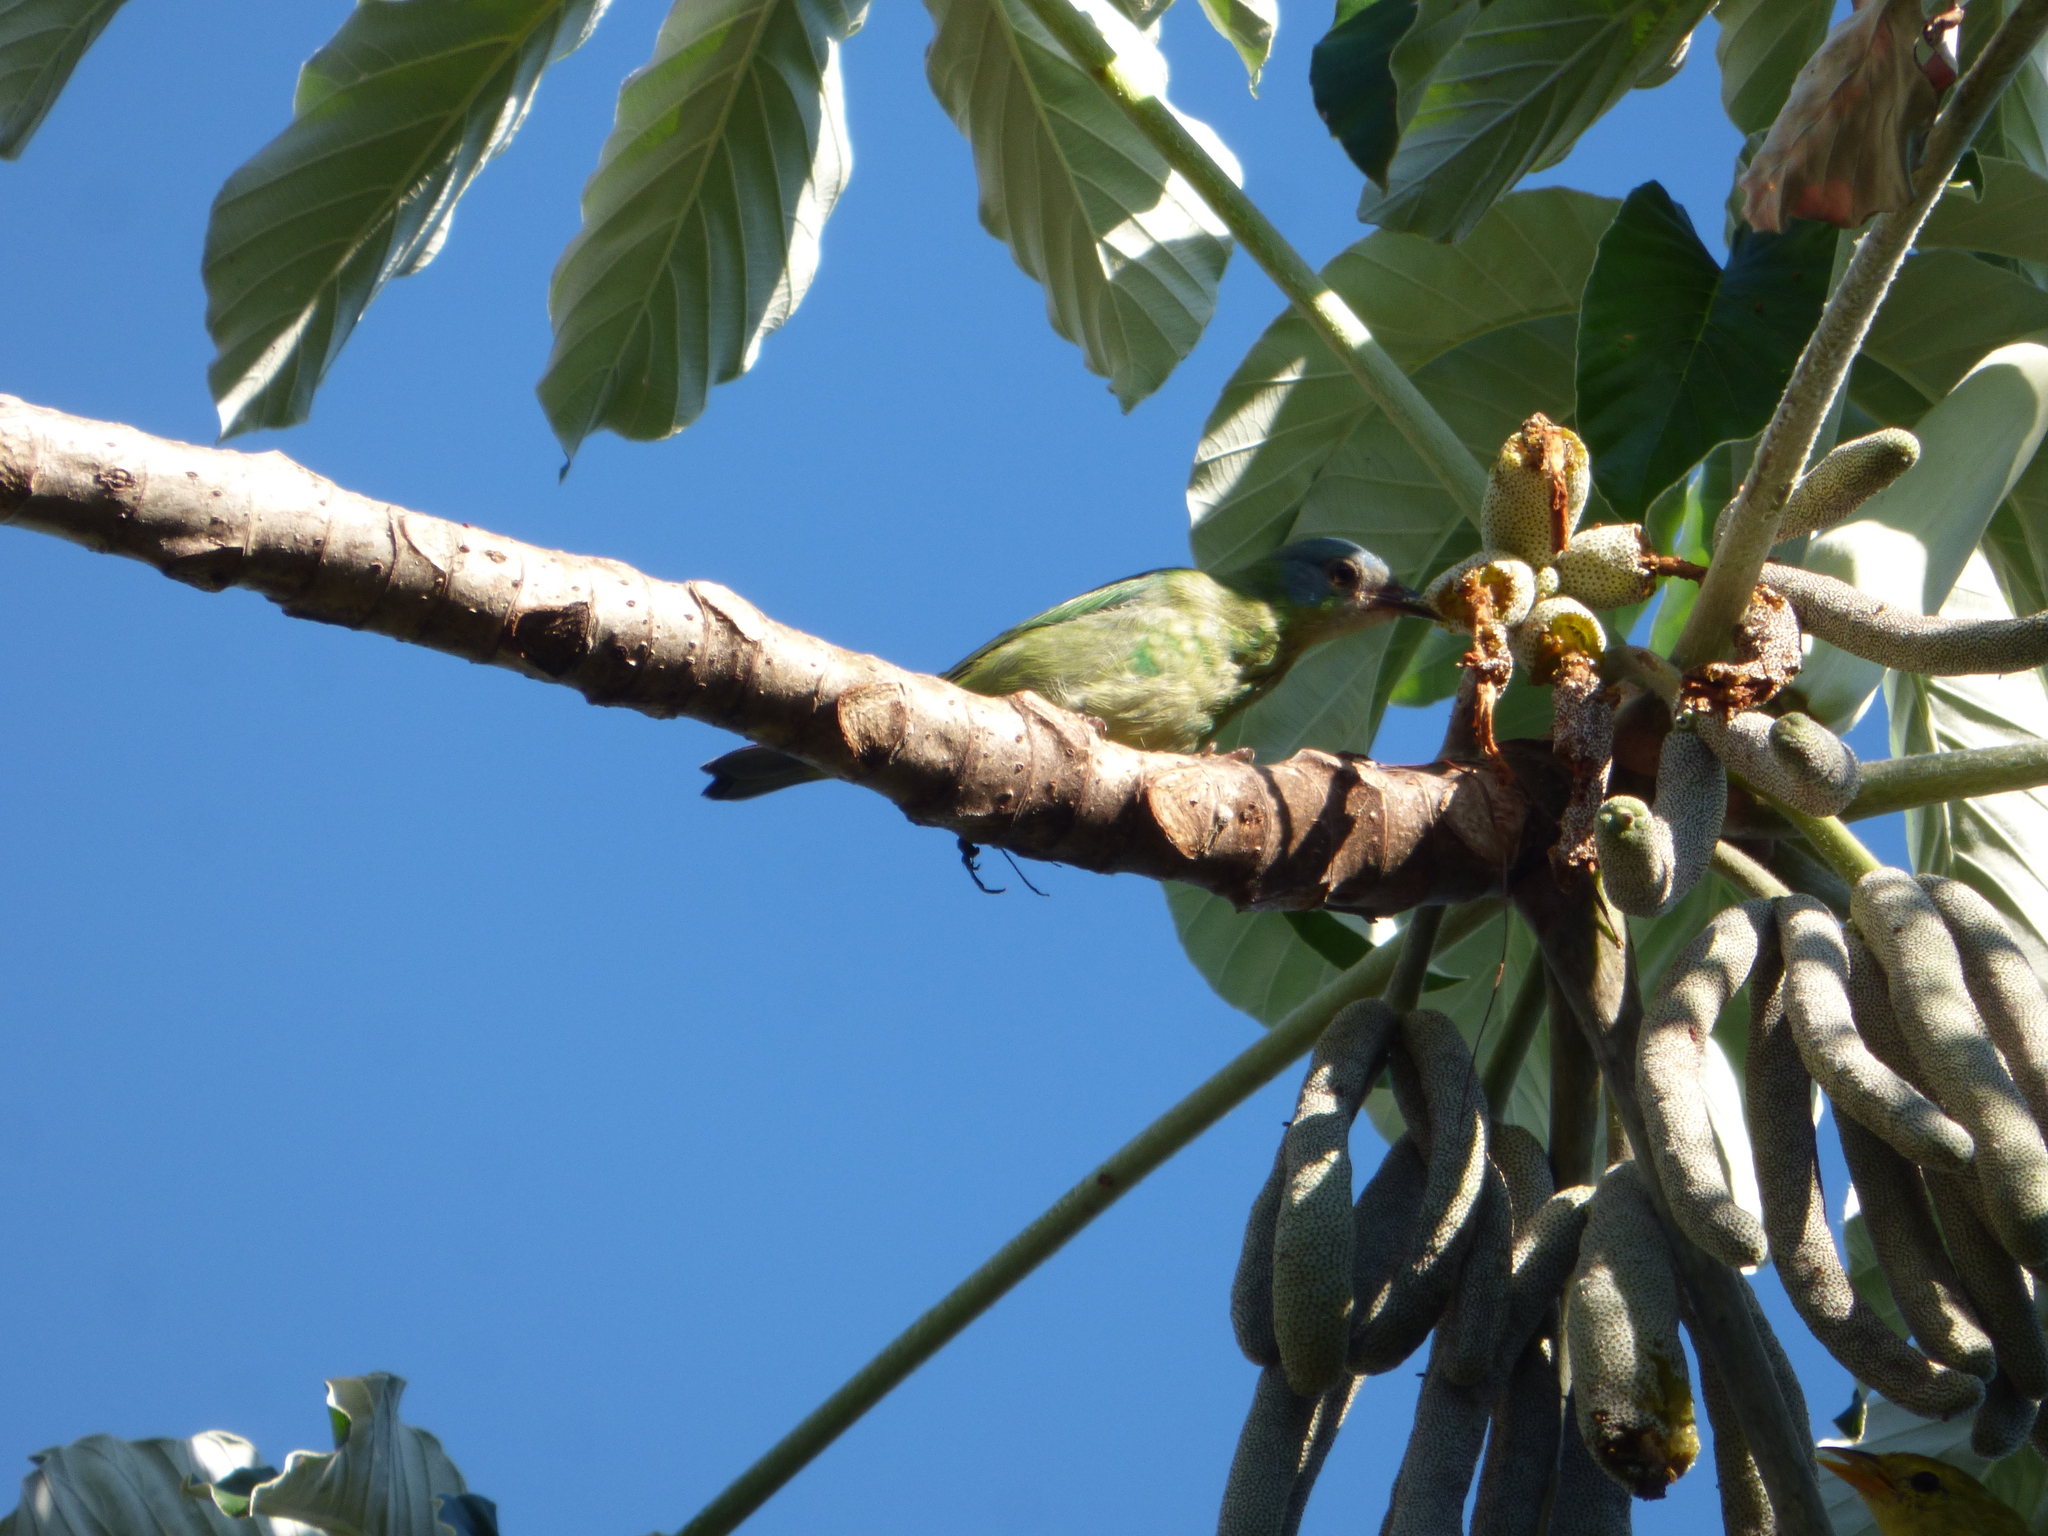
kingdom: Animalia
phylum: Chordata
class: Aves
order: Passeriformes
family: Thraupidae
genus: Dacnis
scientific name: Dacnis cayana
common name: Blue dacnis
